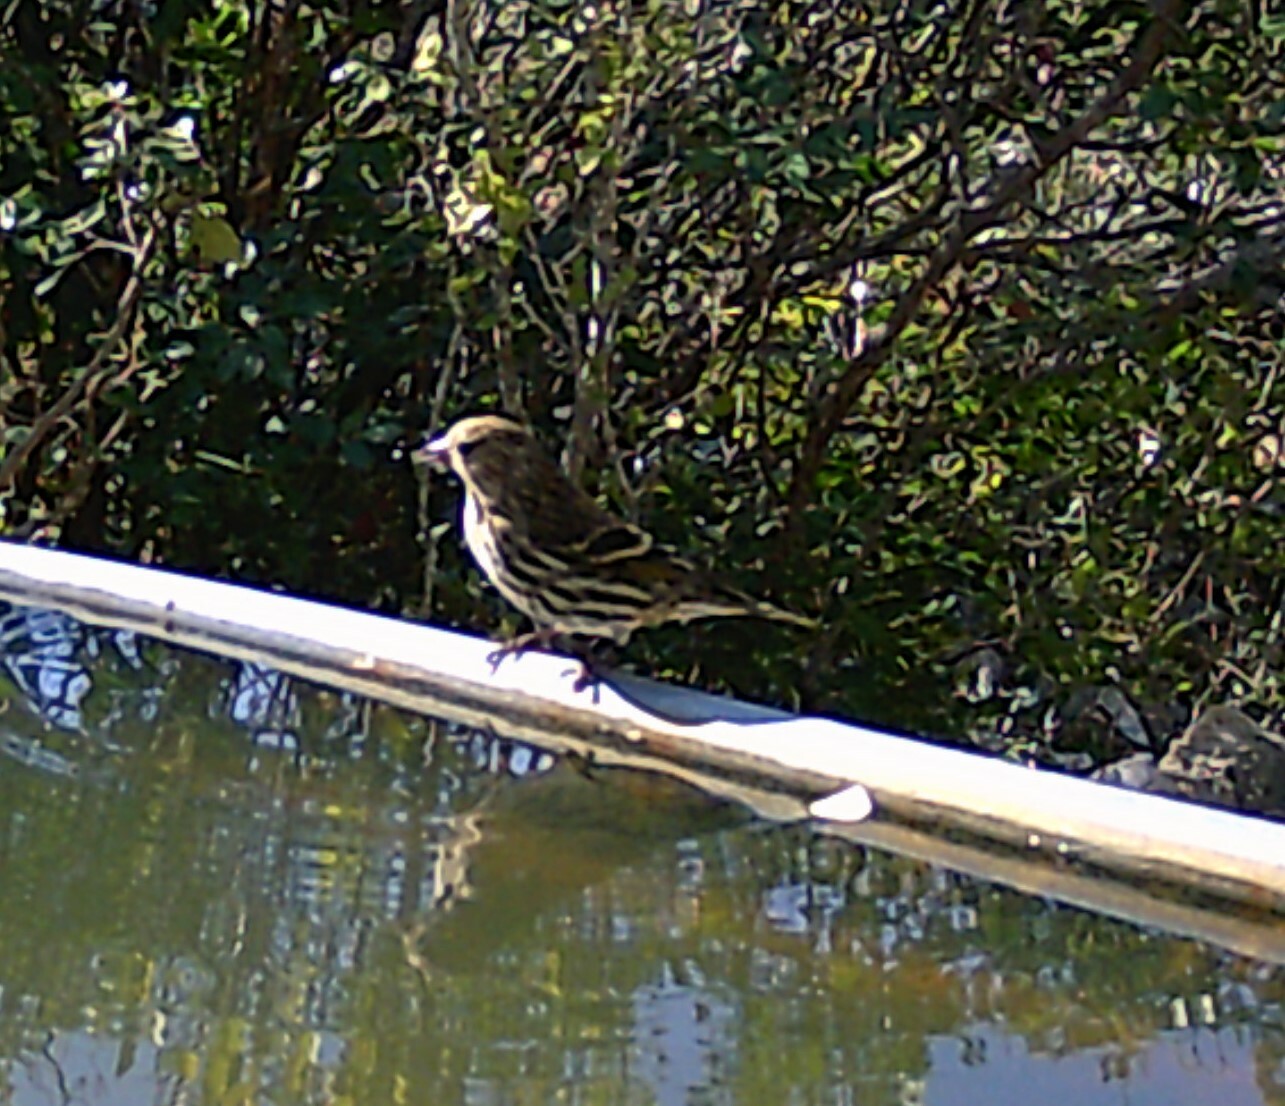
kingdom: Animalia
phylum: Chordata
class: Aves
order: Passeriformes
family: Fringillidae
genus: Spinus
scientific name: Spinus pinus
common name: Pine siskin
